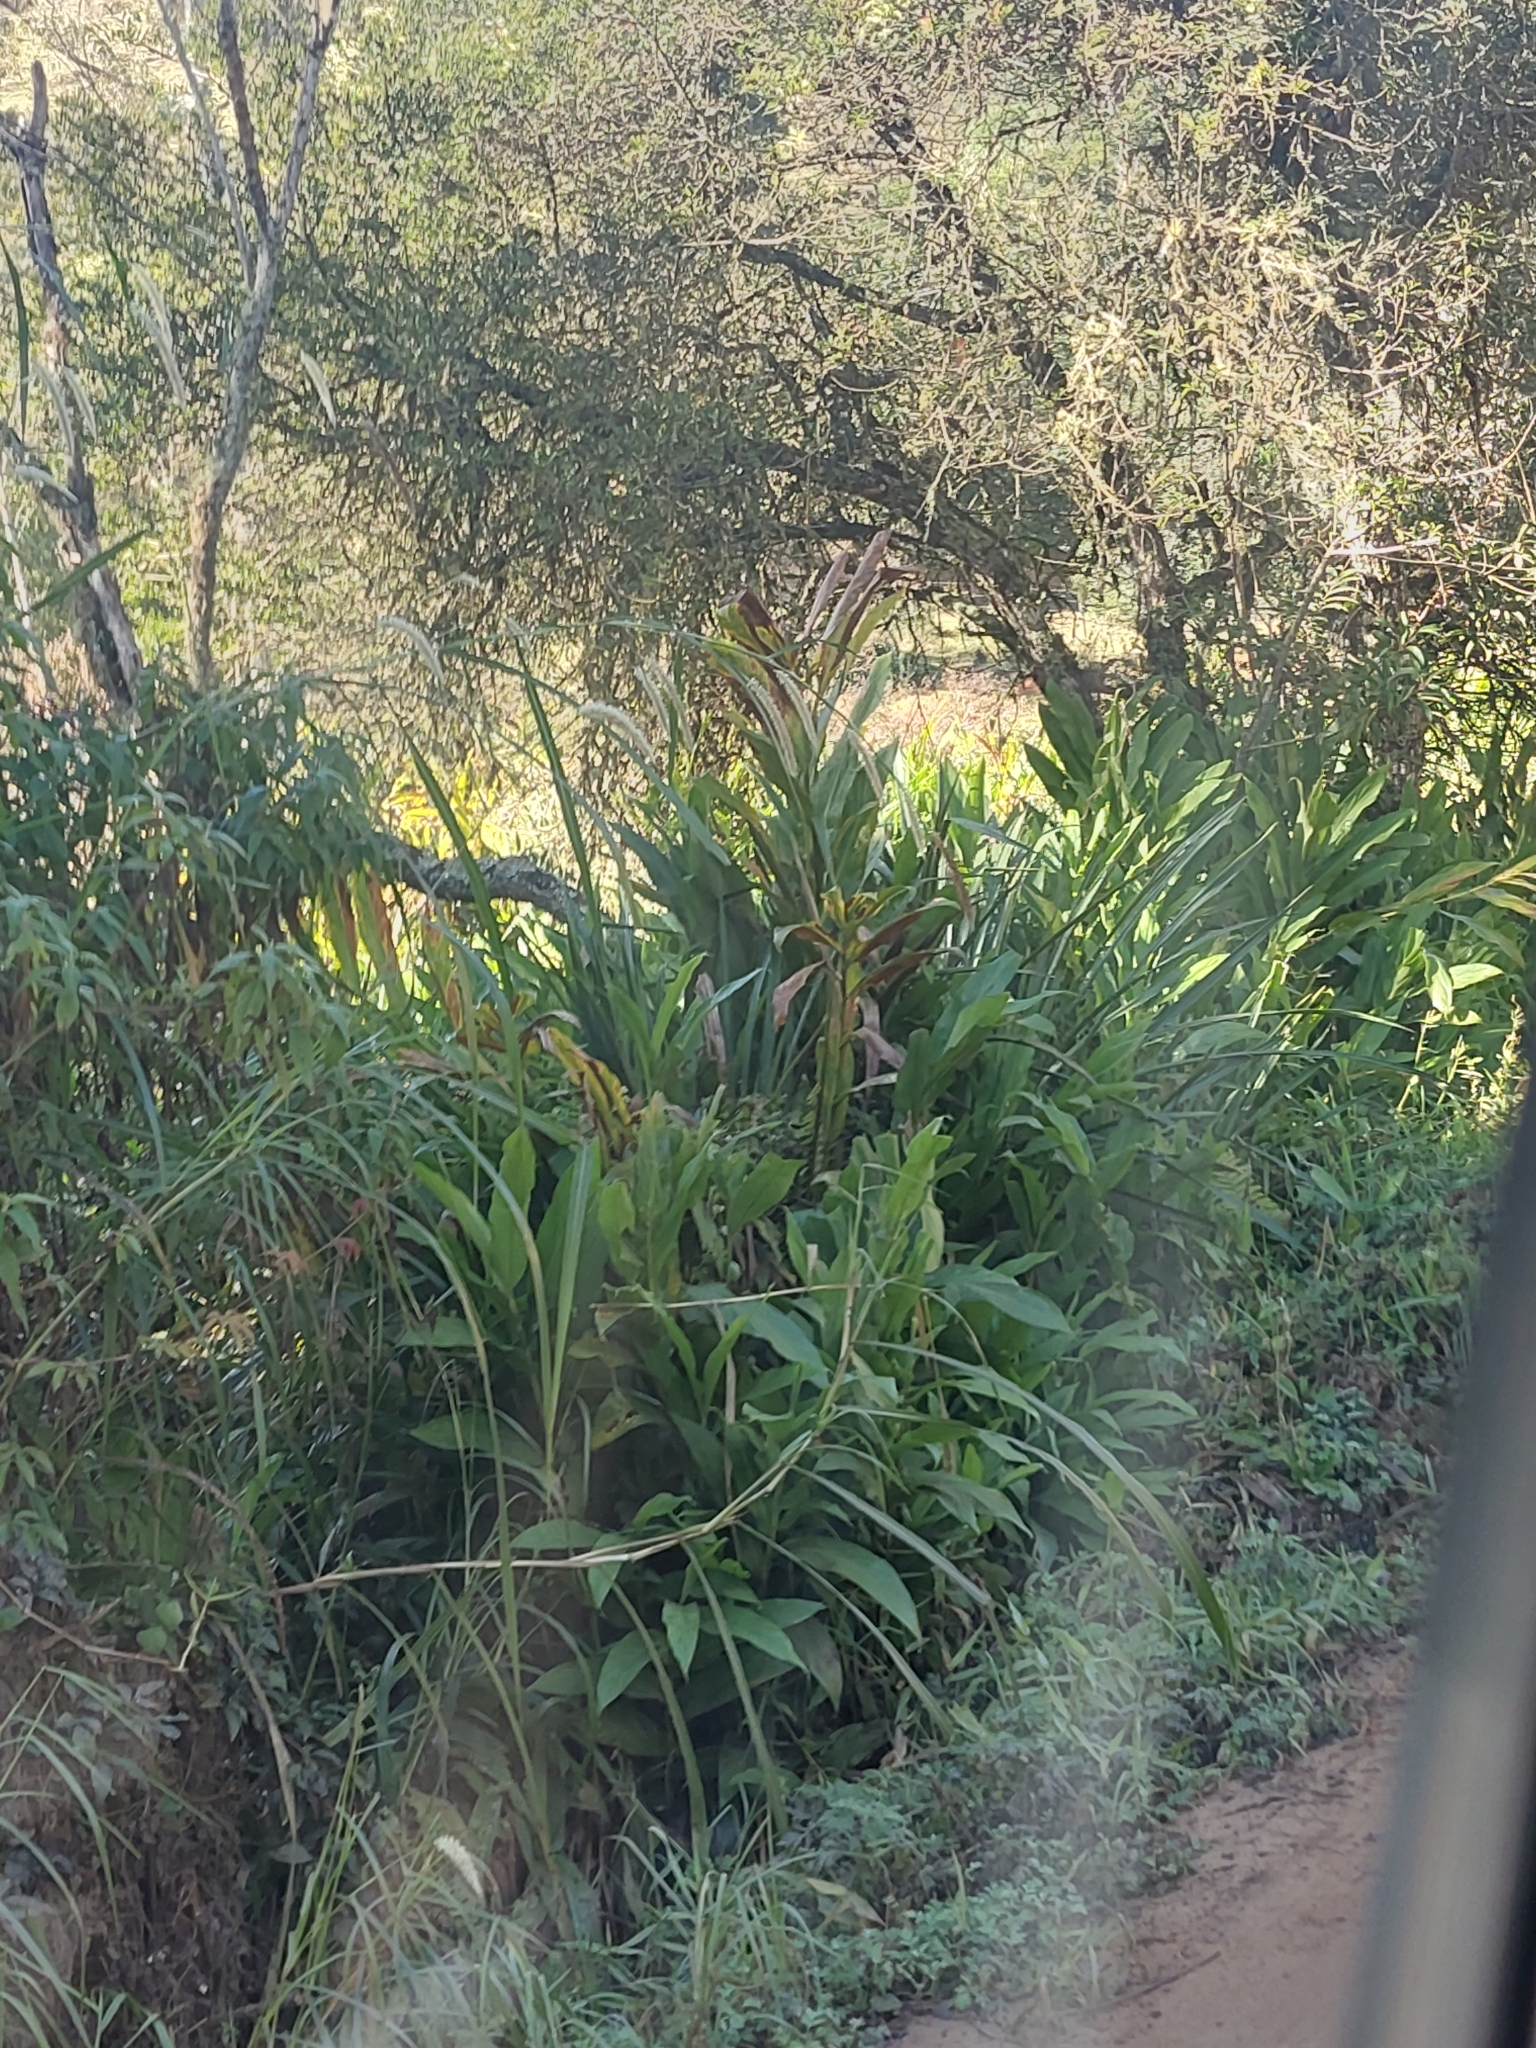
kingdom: Plantae
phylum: Tracheophyta
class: Liliopsida
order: Zingiberales
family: Zingiberaceae
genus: Hedychium
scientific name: Hedychium coronarium
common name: White garland-lily
